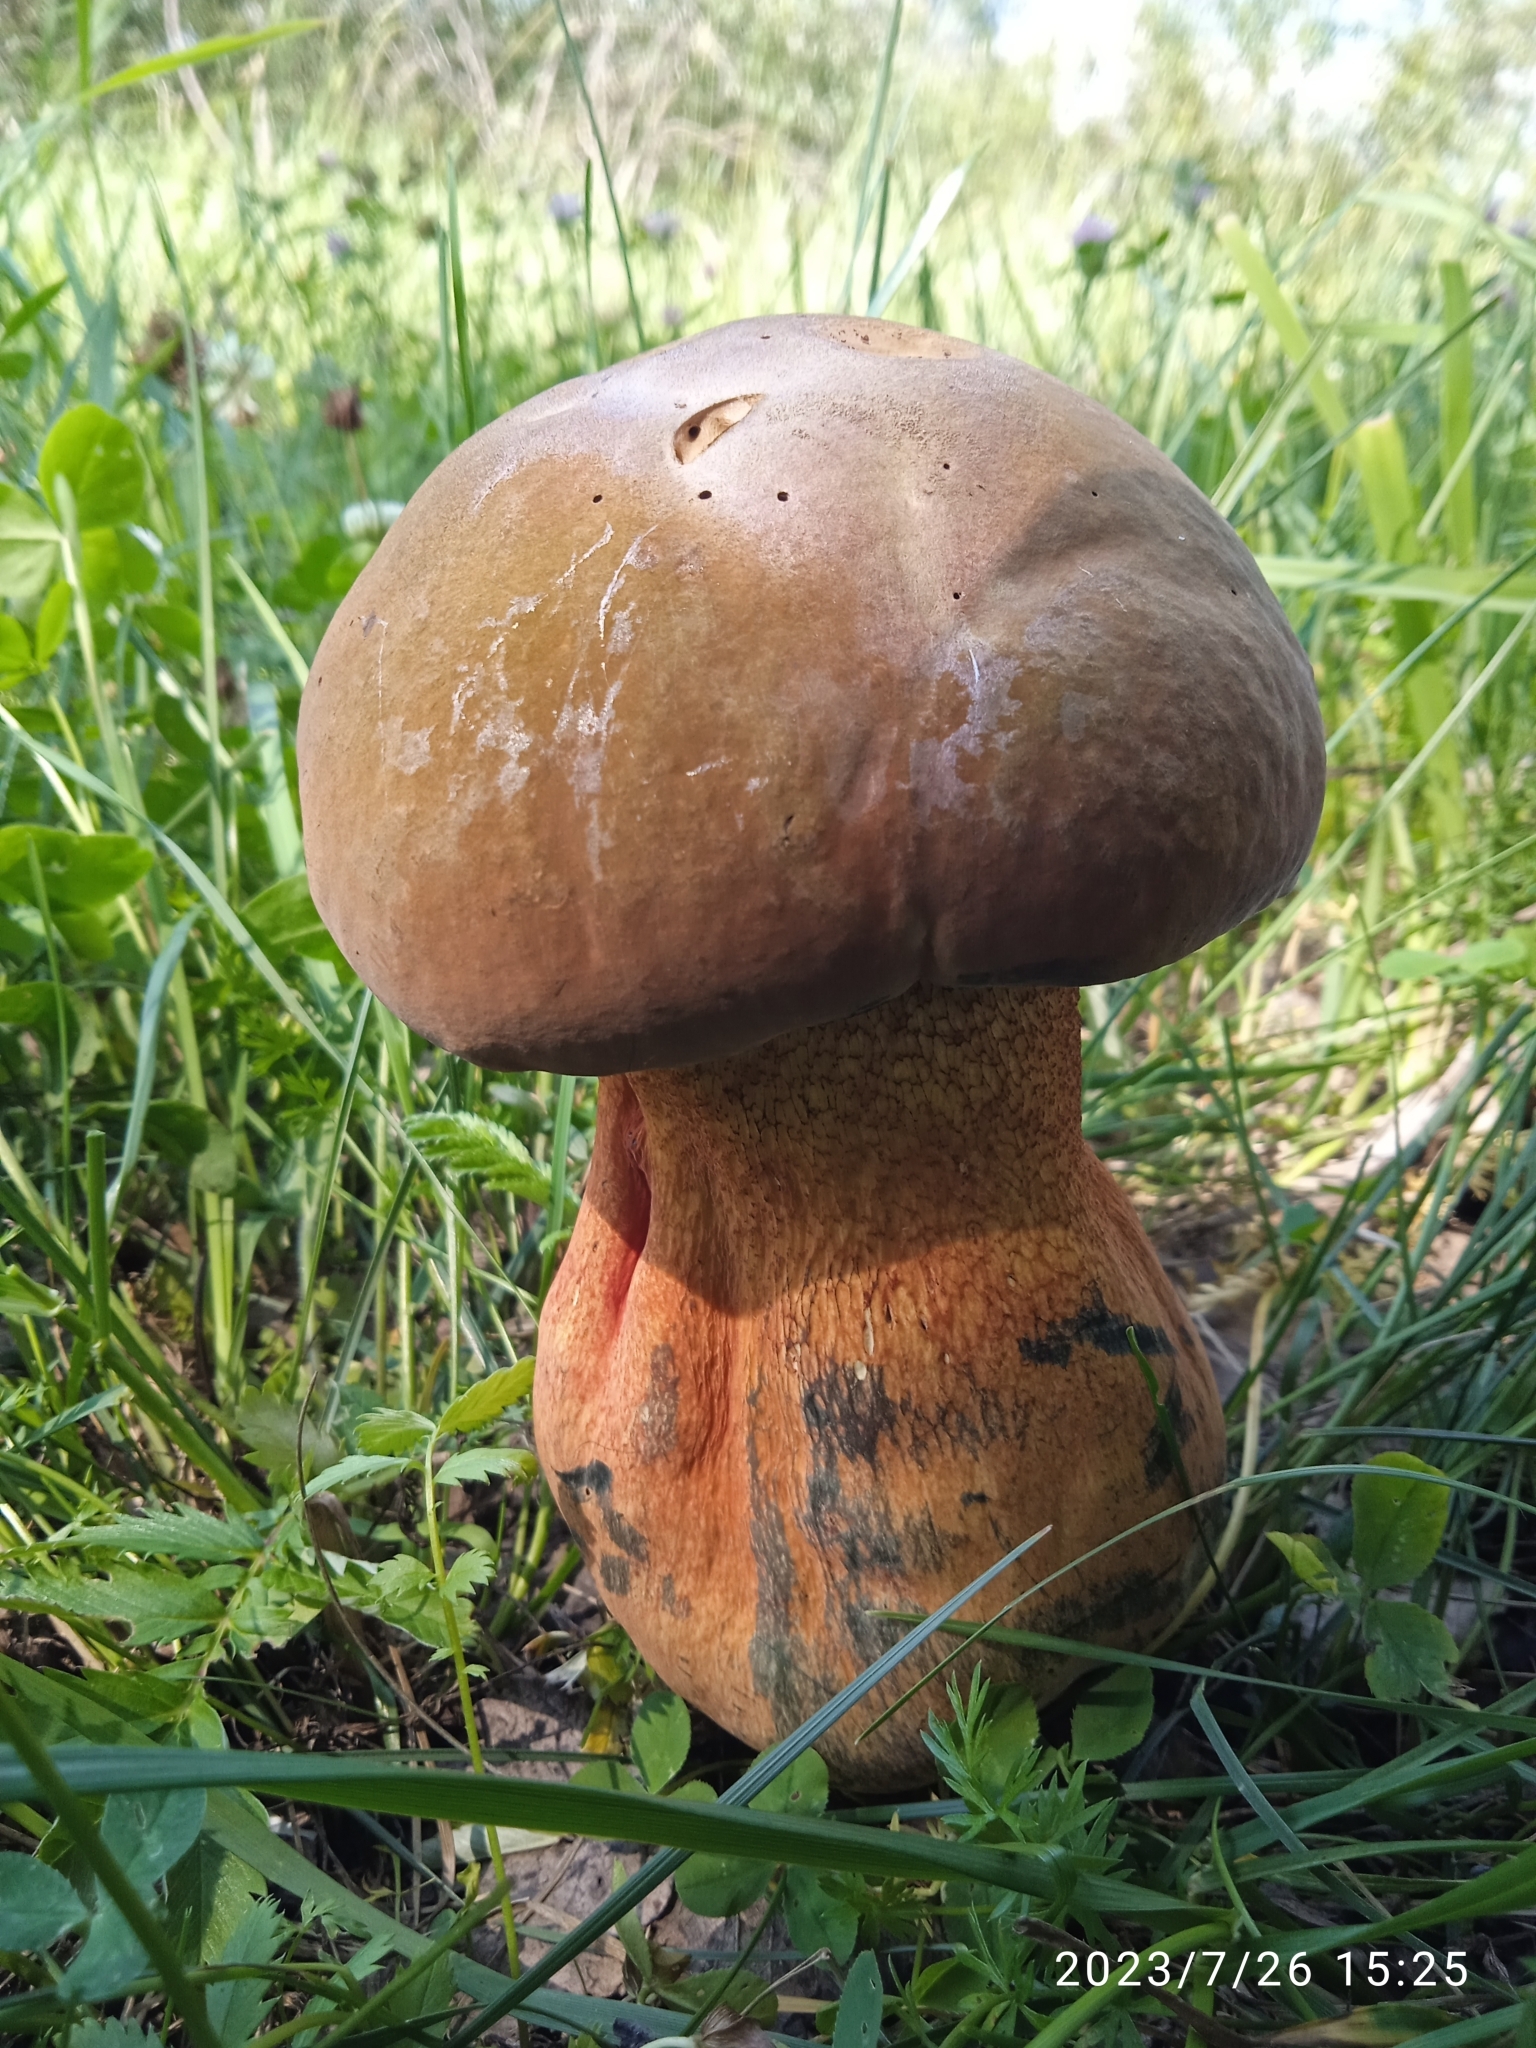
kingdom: Fungi
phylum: Basidiomycota
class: Agaricomycetes
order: Boletales
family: Boletaceae
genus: Suillellus
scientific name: Suillellus luridus
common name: Lurid bolete
